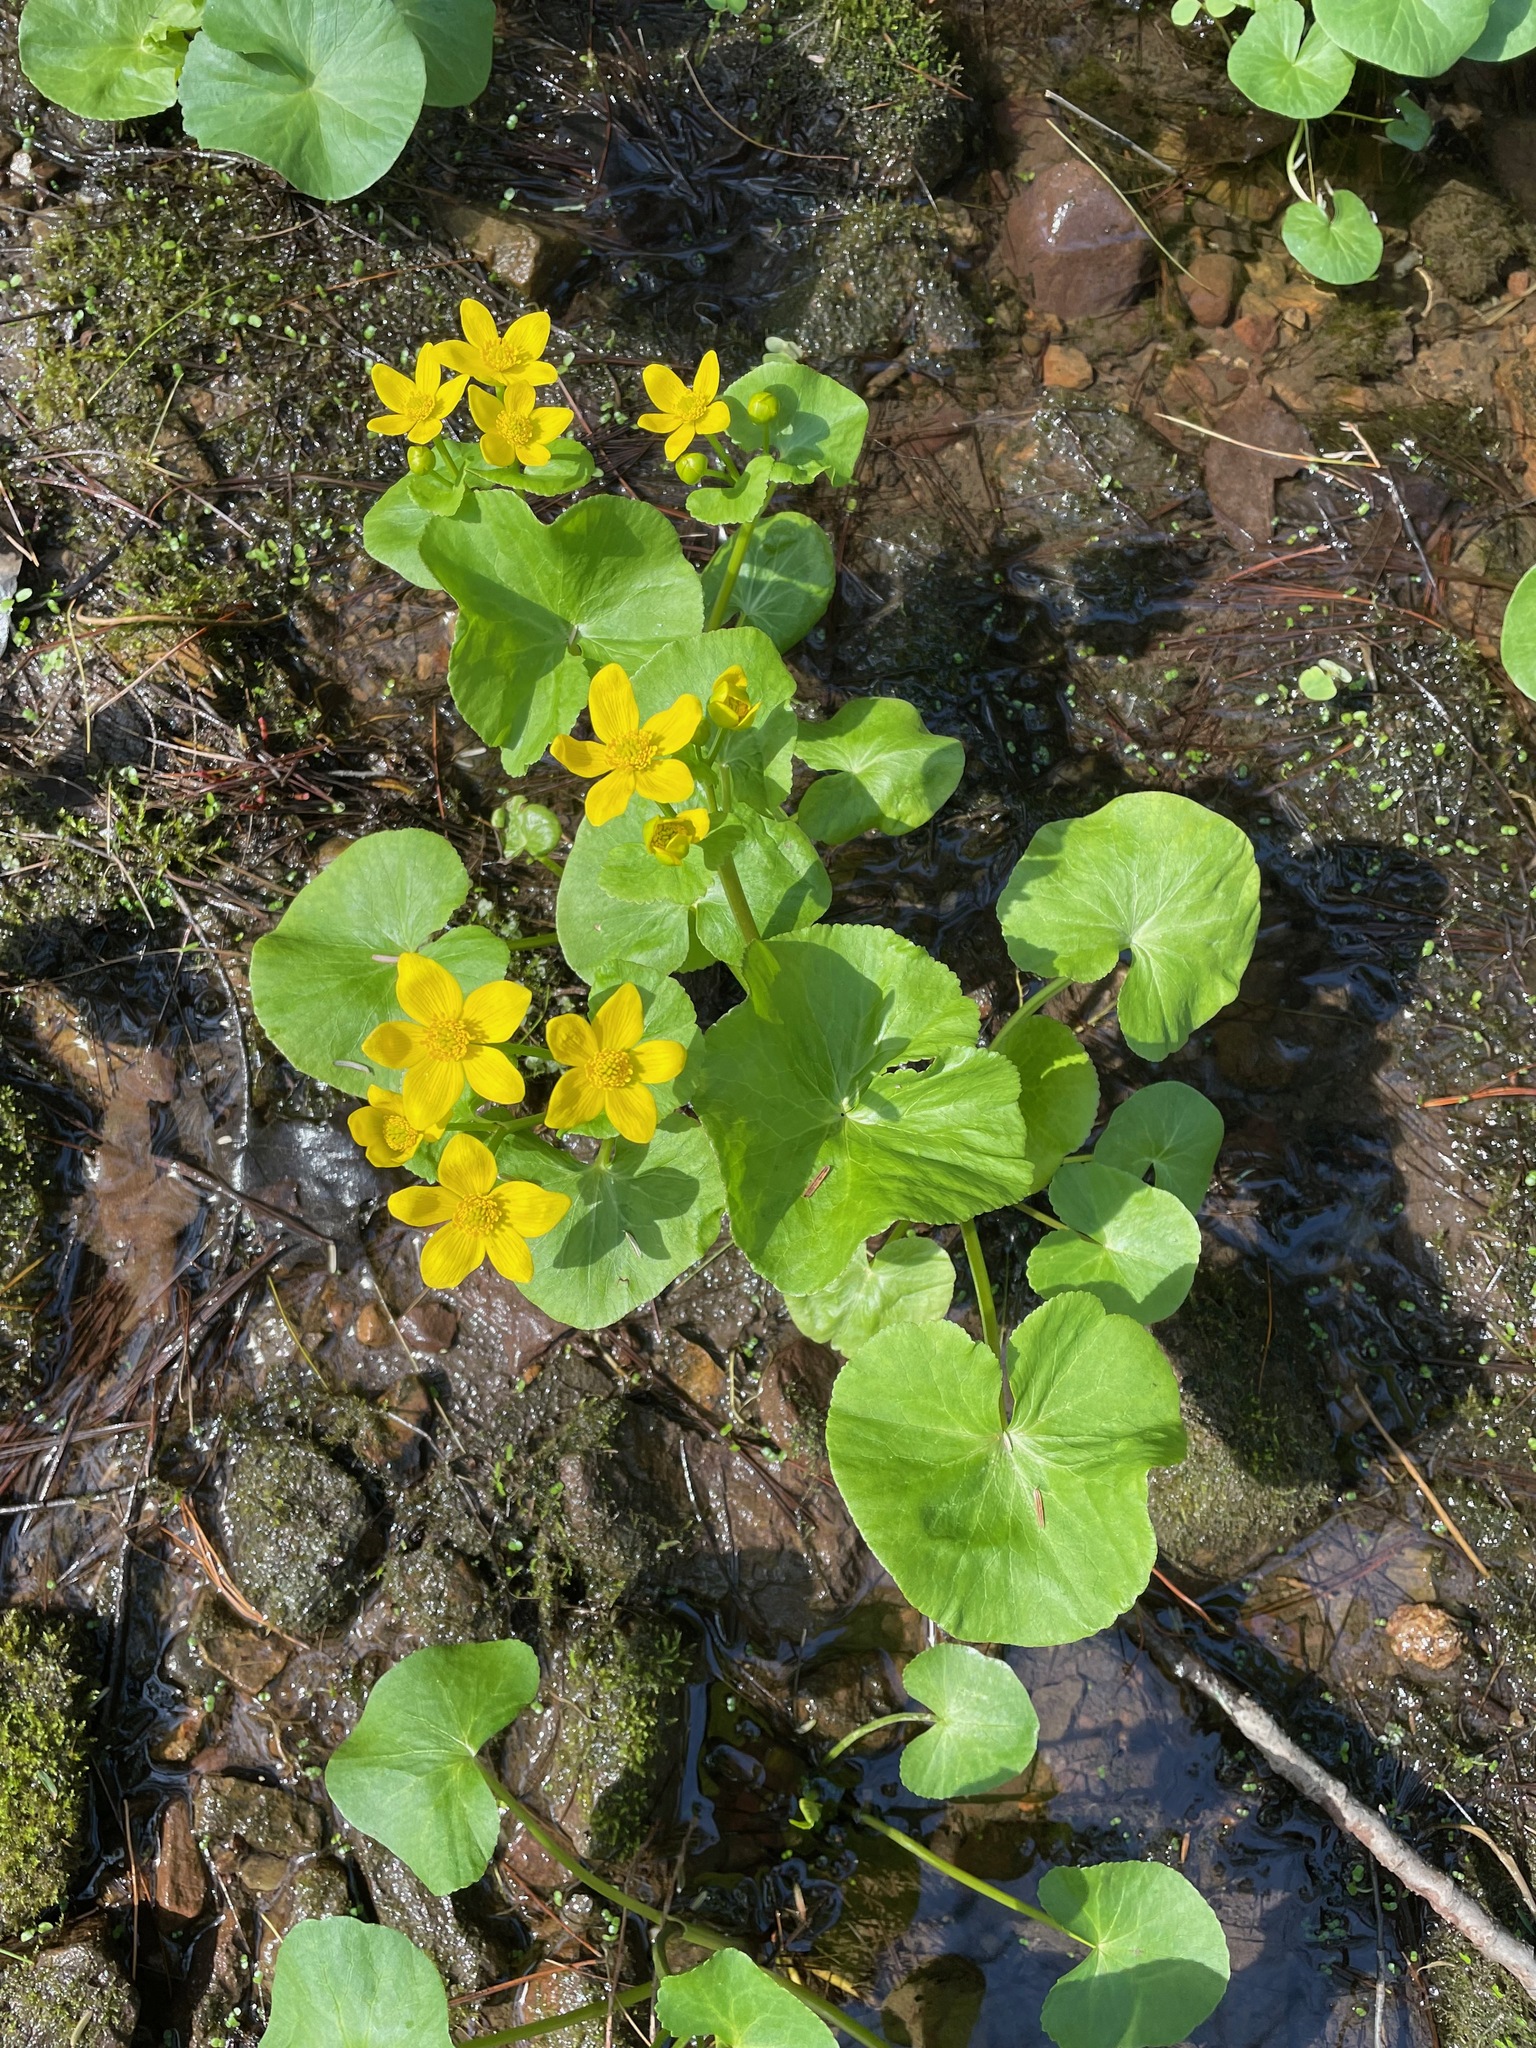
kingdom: Plantae
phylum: Tracheophyta
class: Magnoliopsida
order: Ranunculales
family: Ranunculaceae
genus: Caltha
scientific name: Caltha palustris
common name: Marsh marigold
